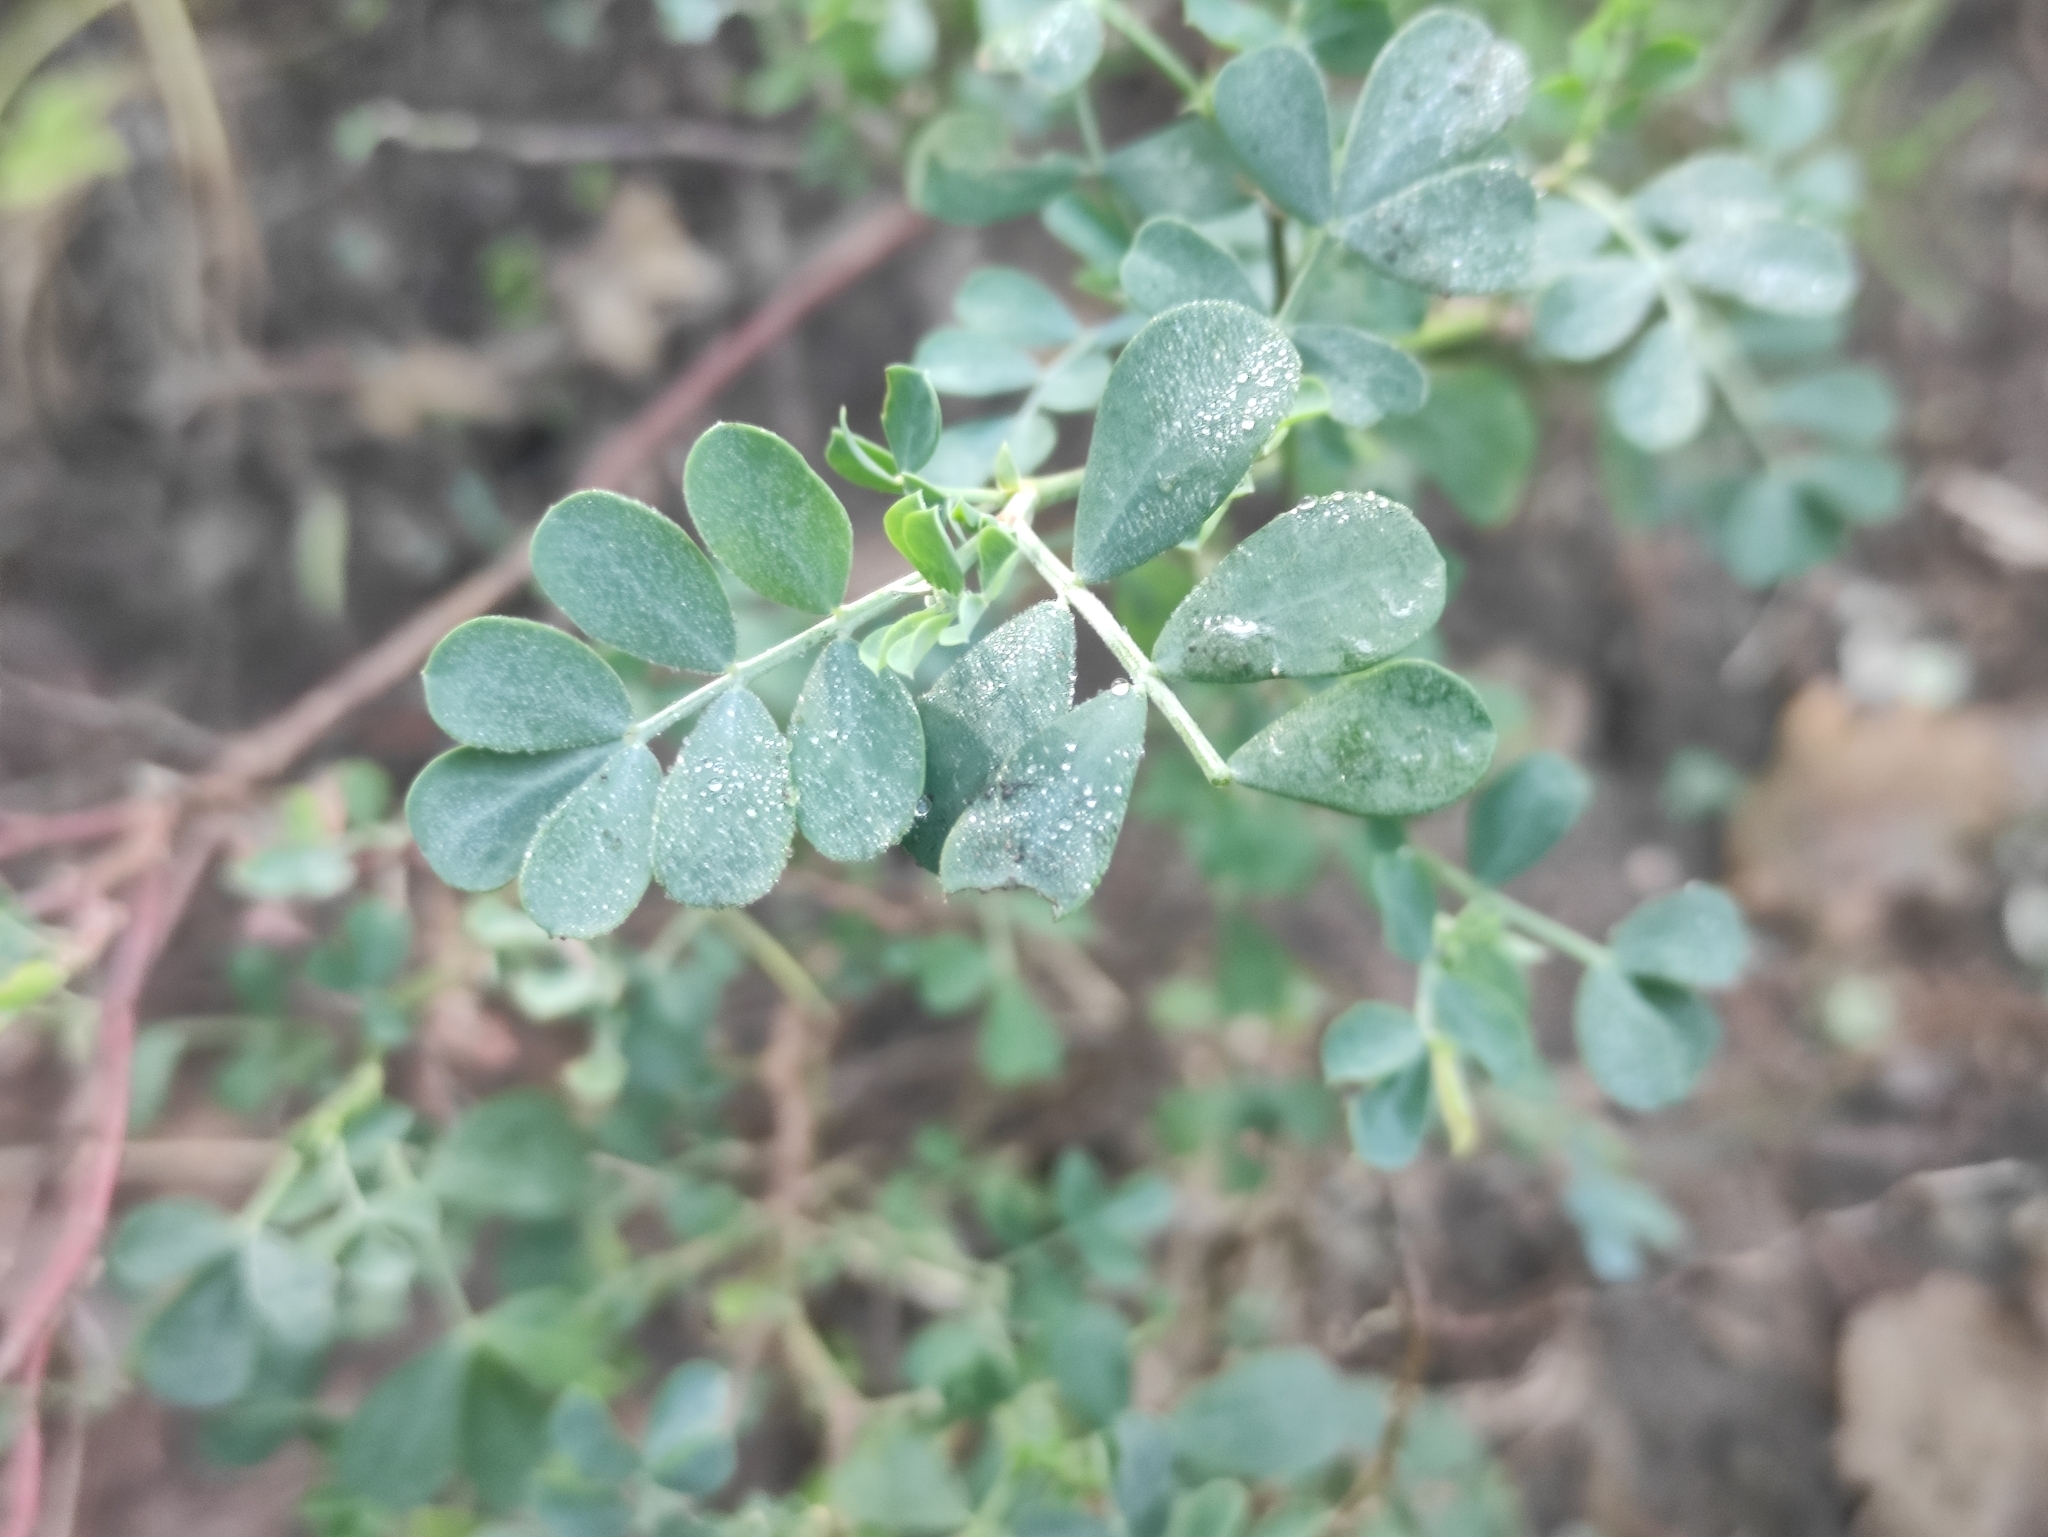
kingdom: Plantae
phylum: Tracheophyta
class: Magnoliopsida
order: Fabales
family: Fabaceae
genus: Coronilla
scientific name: Coronilla valentina
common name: Shrubby scorpion-vetch
